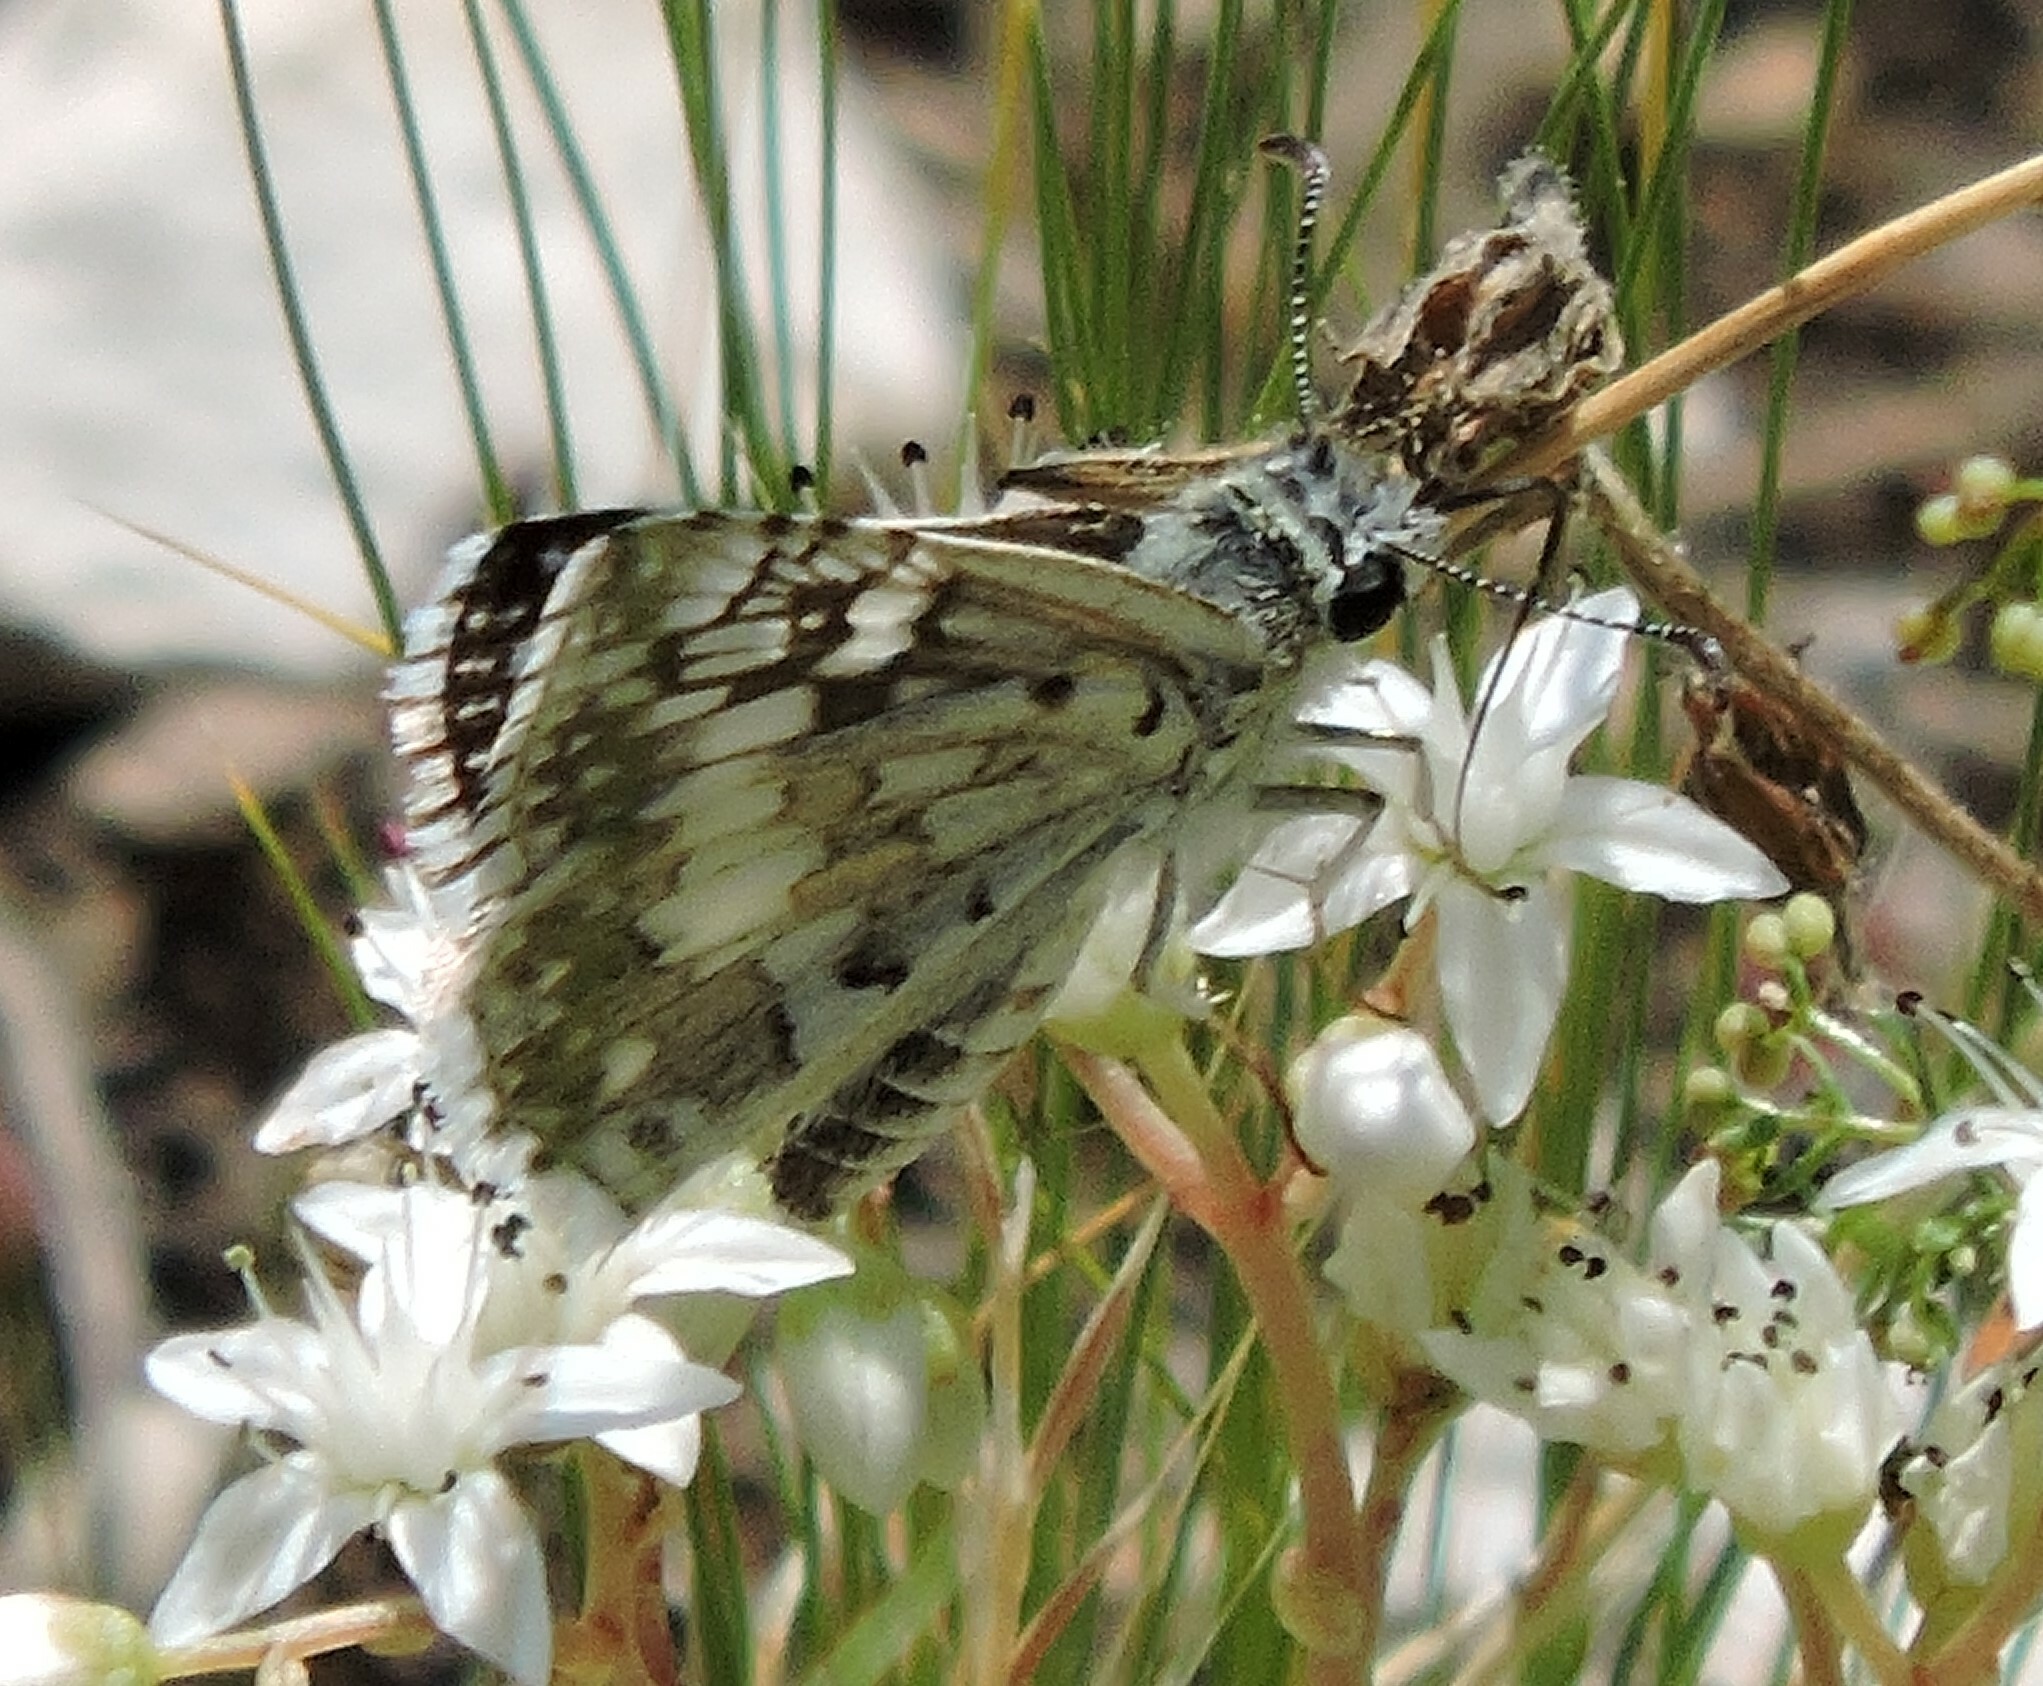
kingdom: Animalia
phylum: Arthropoda
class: Insecta
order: Lepidoptera
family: Hesperiidae
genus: Burnsius
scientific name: Burnsius communis
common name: Common checkered-skipper
